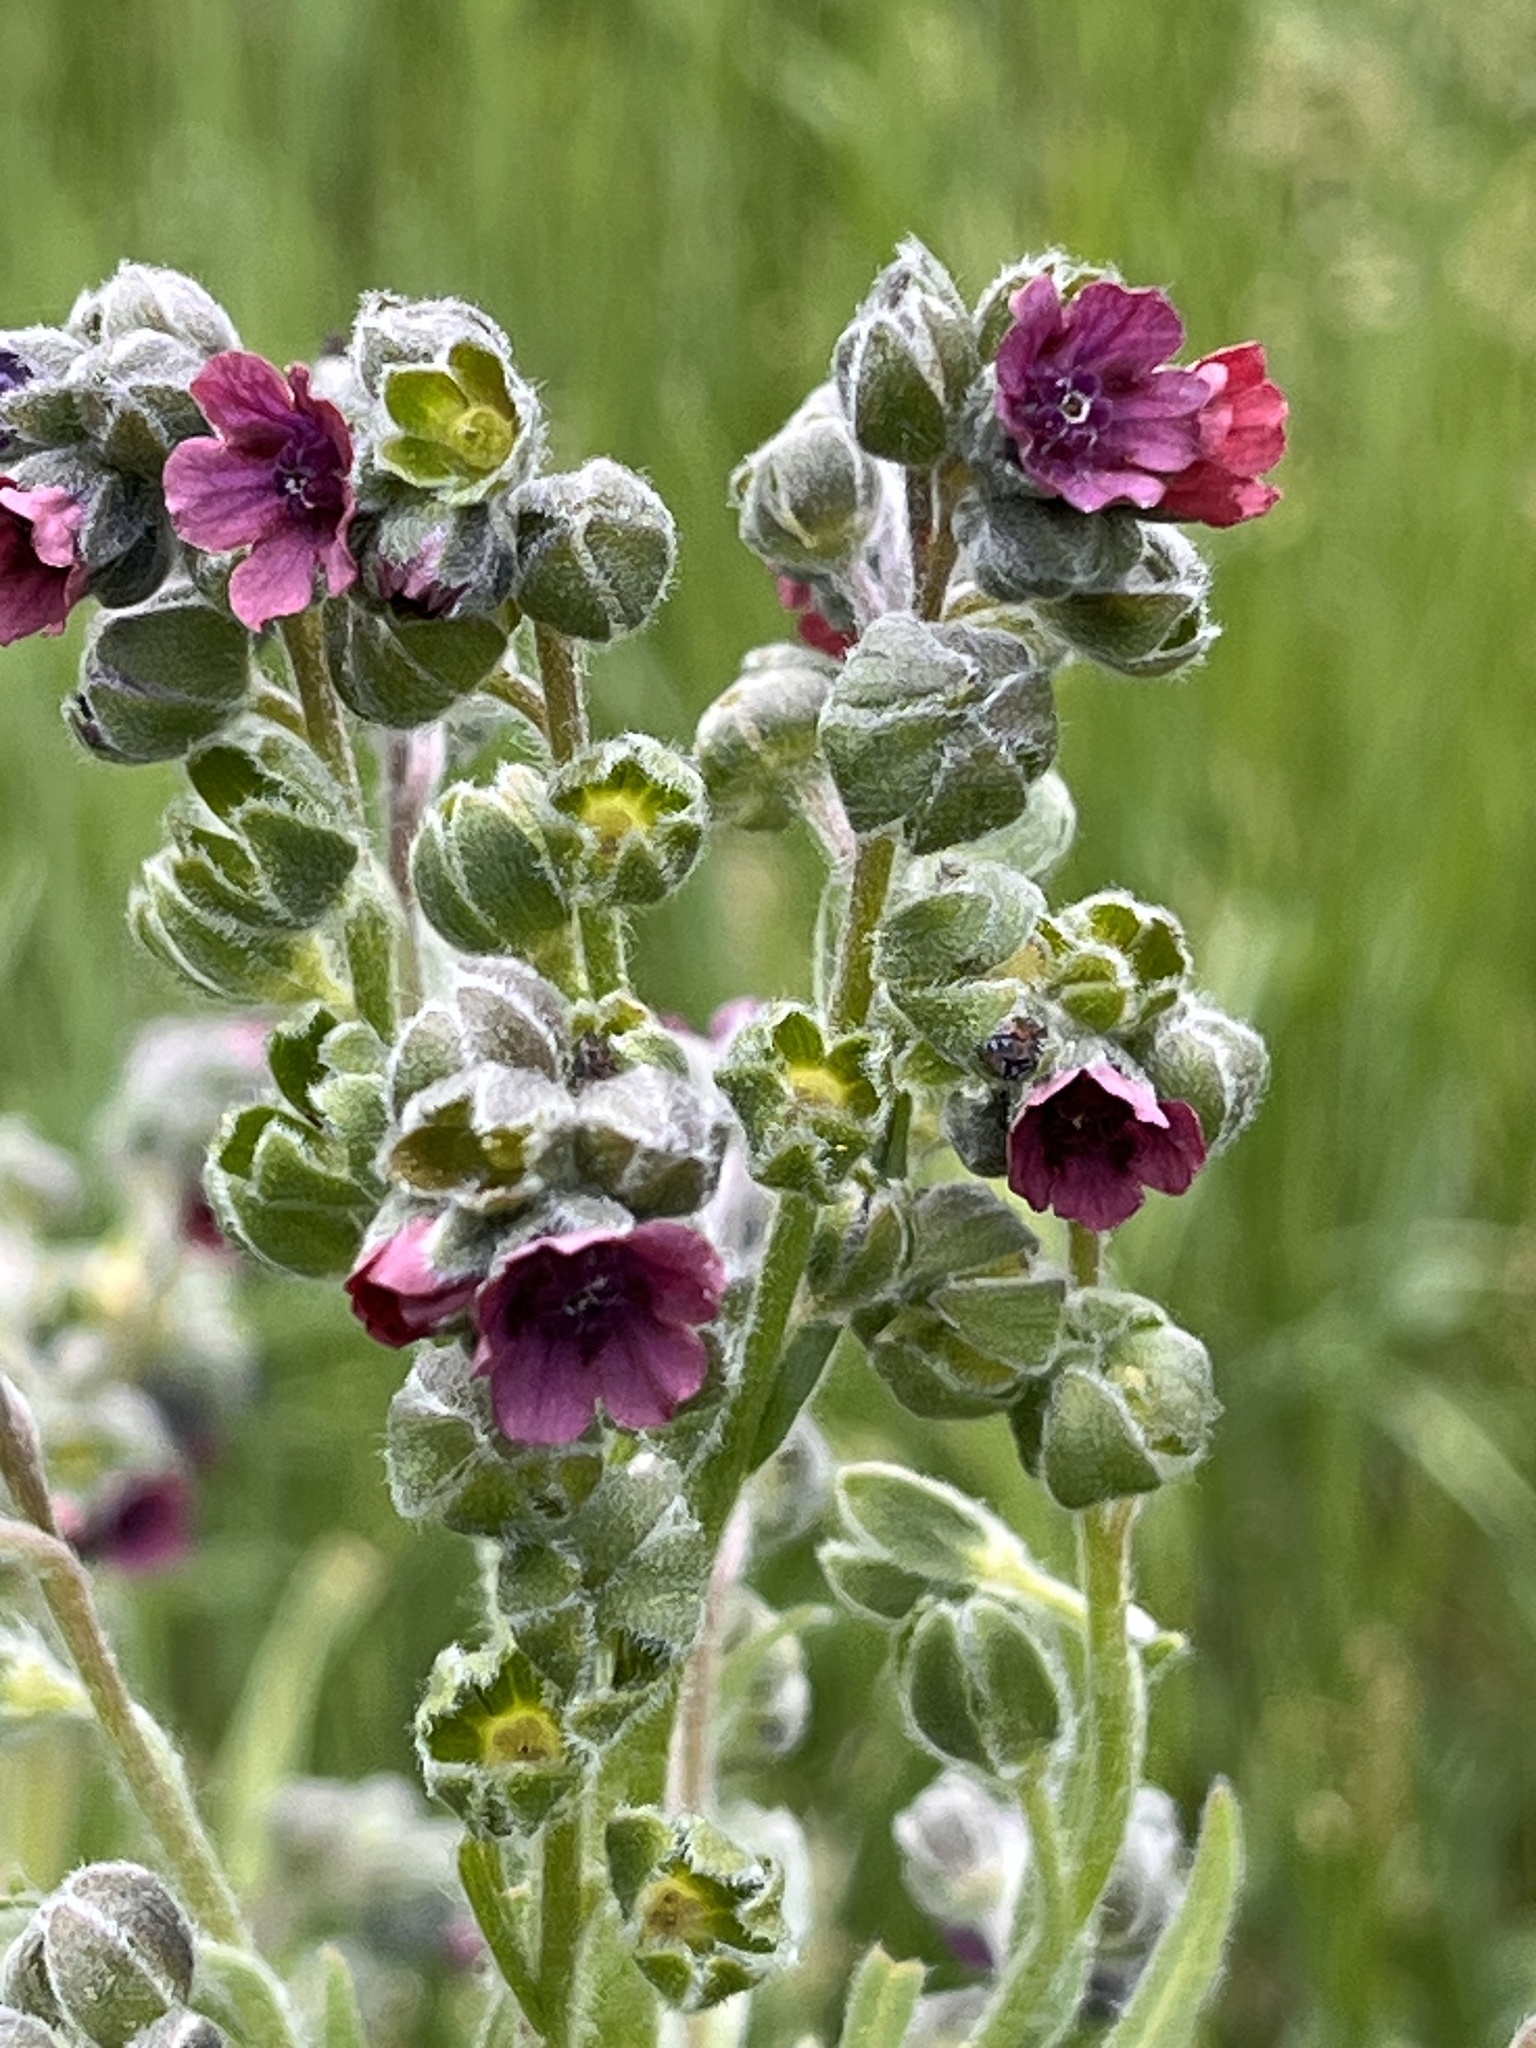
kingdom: Plantae
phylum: Tracheophyta
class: Magnoliopsida
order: Boraginales
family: Boraginaceae
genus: Cynoglossum
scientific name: Cynoglossum officinale
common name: Hound's-tongue
